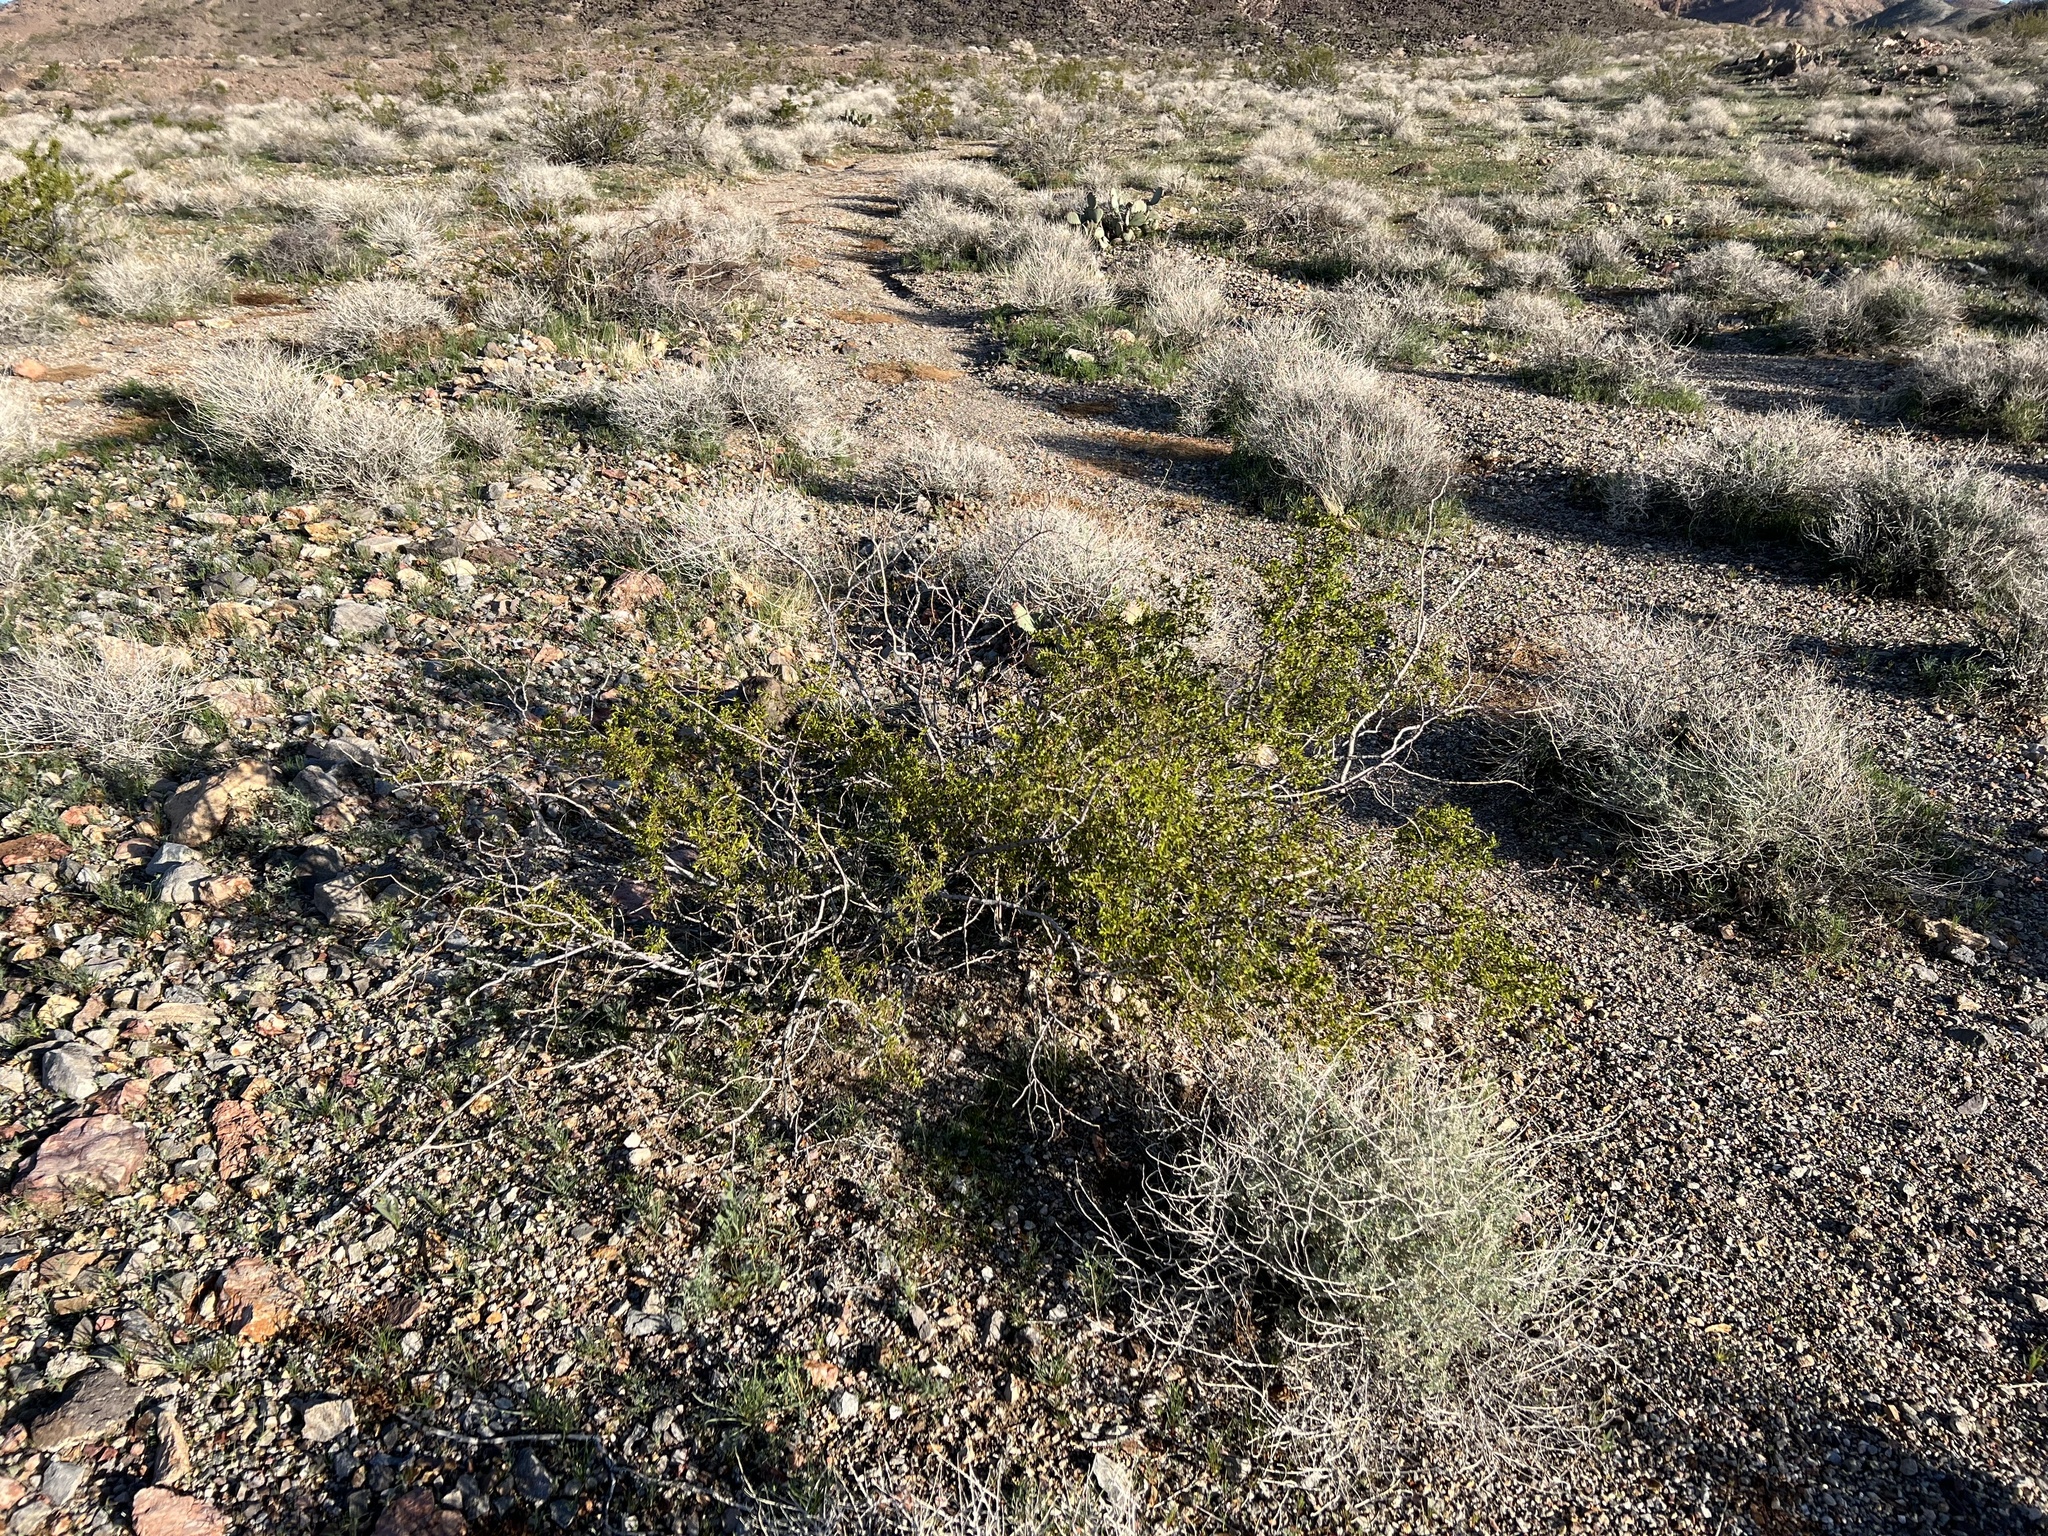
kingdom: Plantae
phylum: Tracheophyta
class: Magnoliopsida
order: Zygophyllales
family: Zygophyllaceae
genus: Larrea
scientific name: Larrea tridentata
